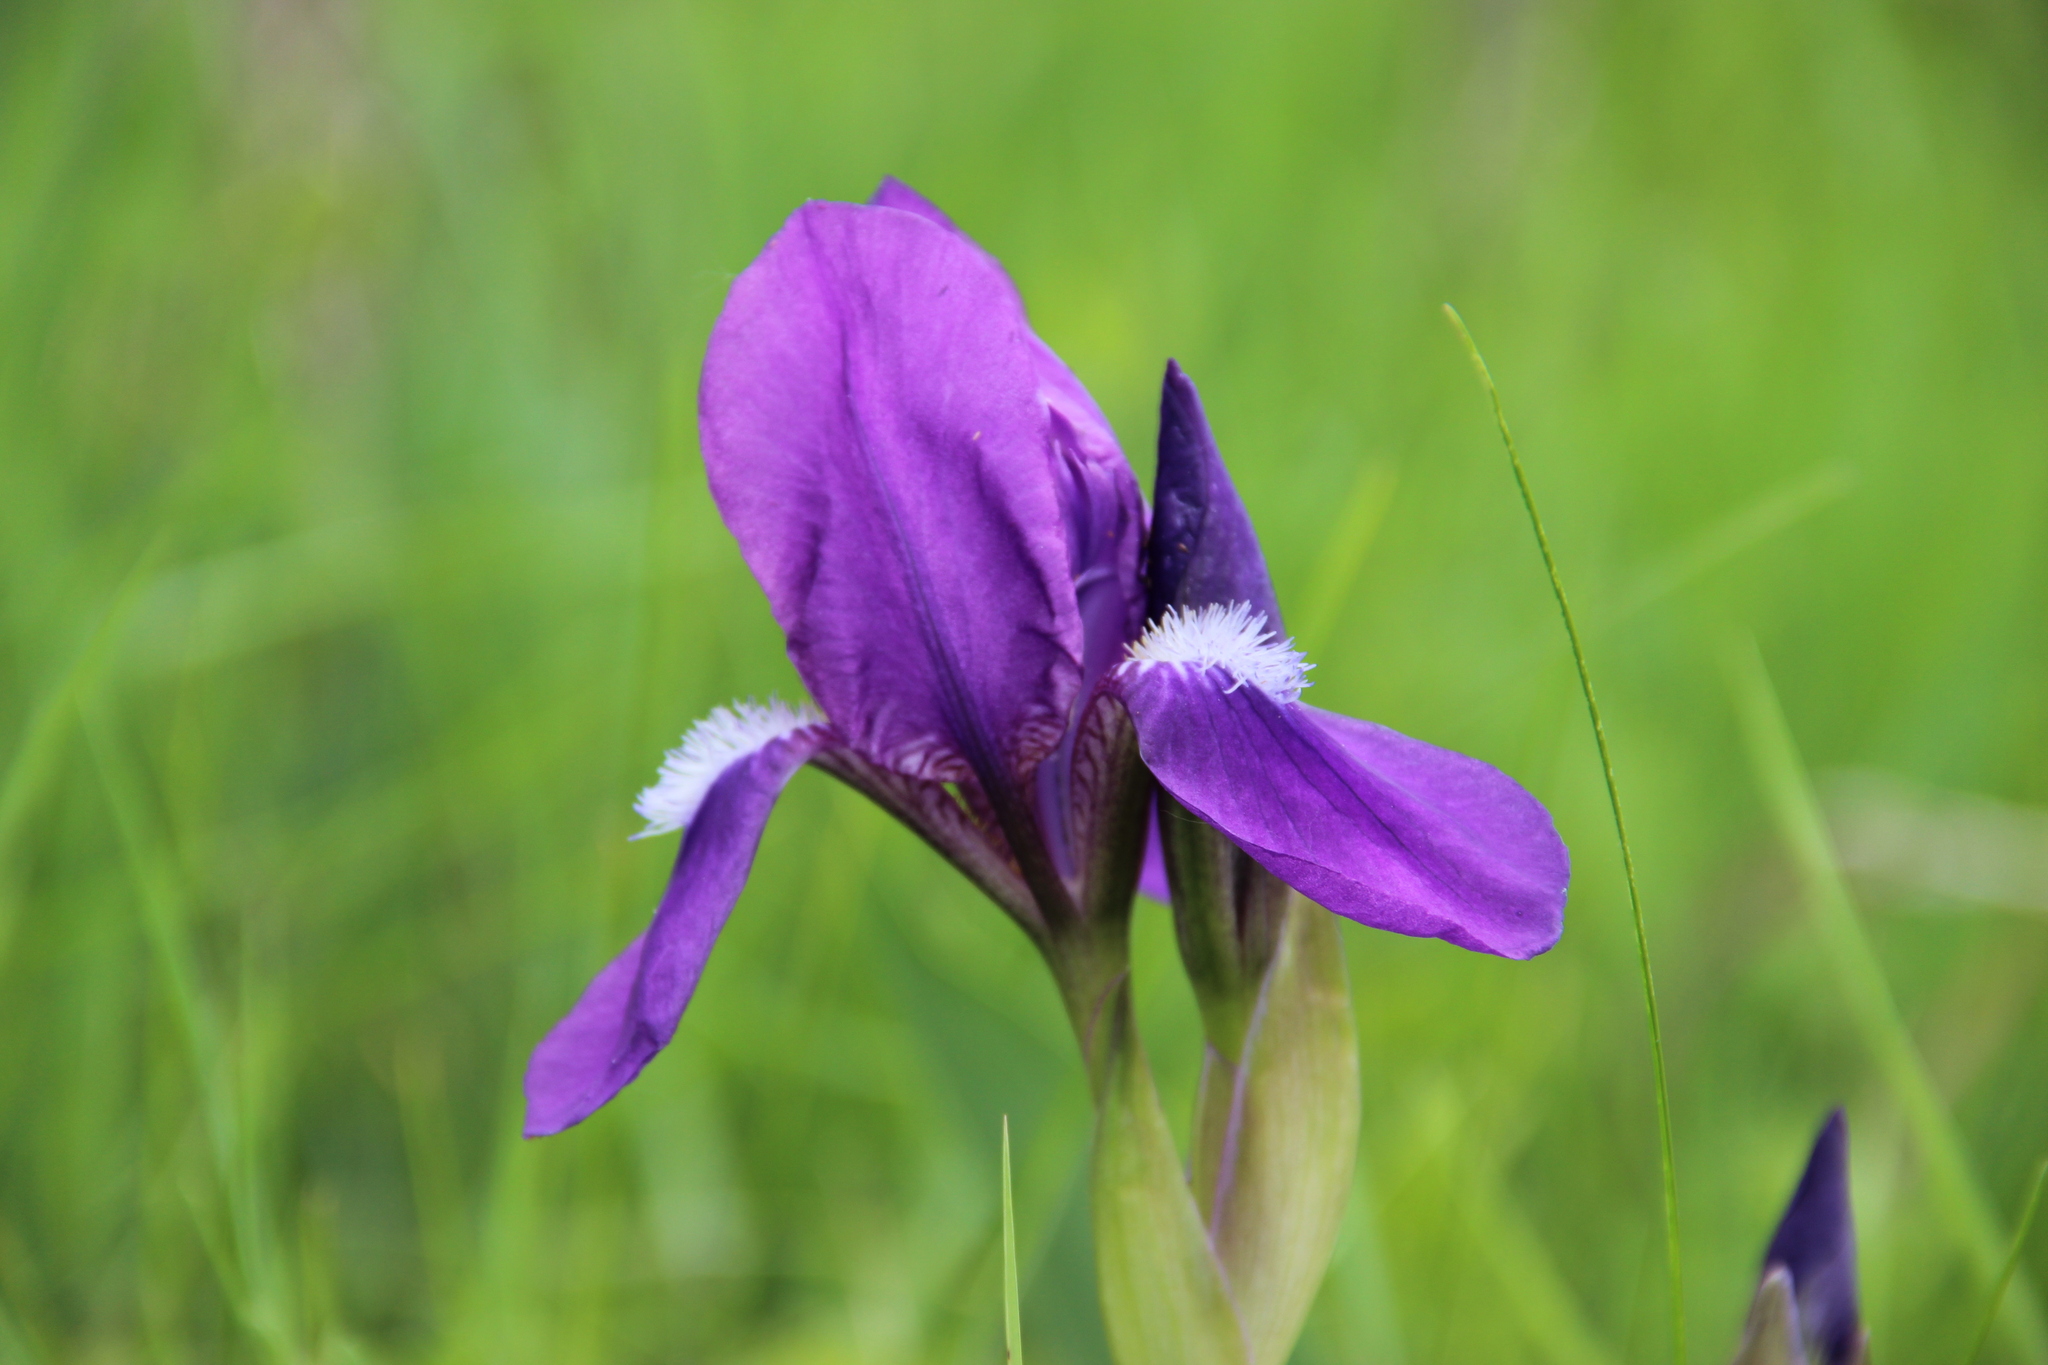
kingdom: Plantae
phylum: Tracheophyta
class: Liliopsida
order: Asparagales
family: Iridaceae
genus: Iris
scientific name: Iris aphylla
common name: Stool iris
